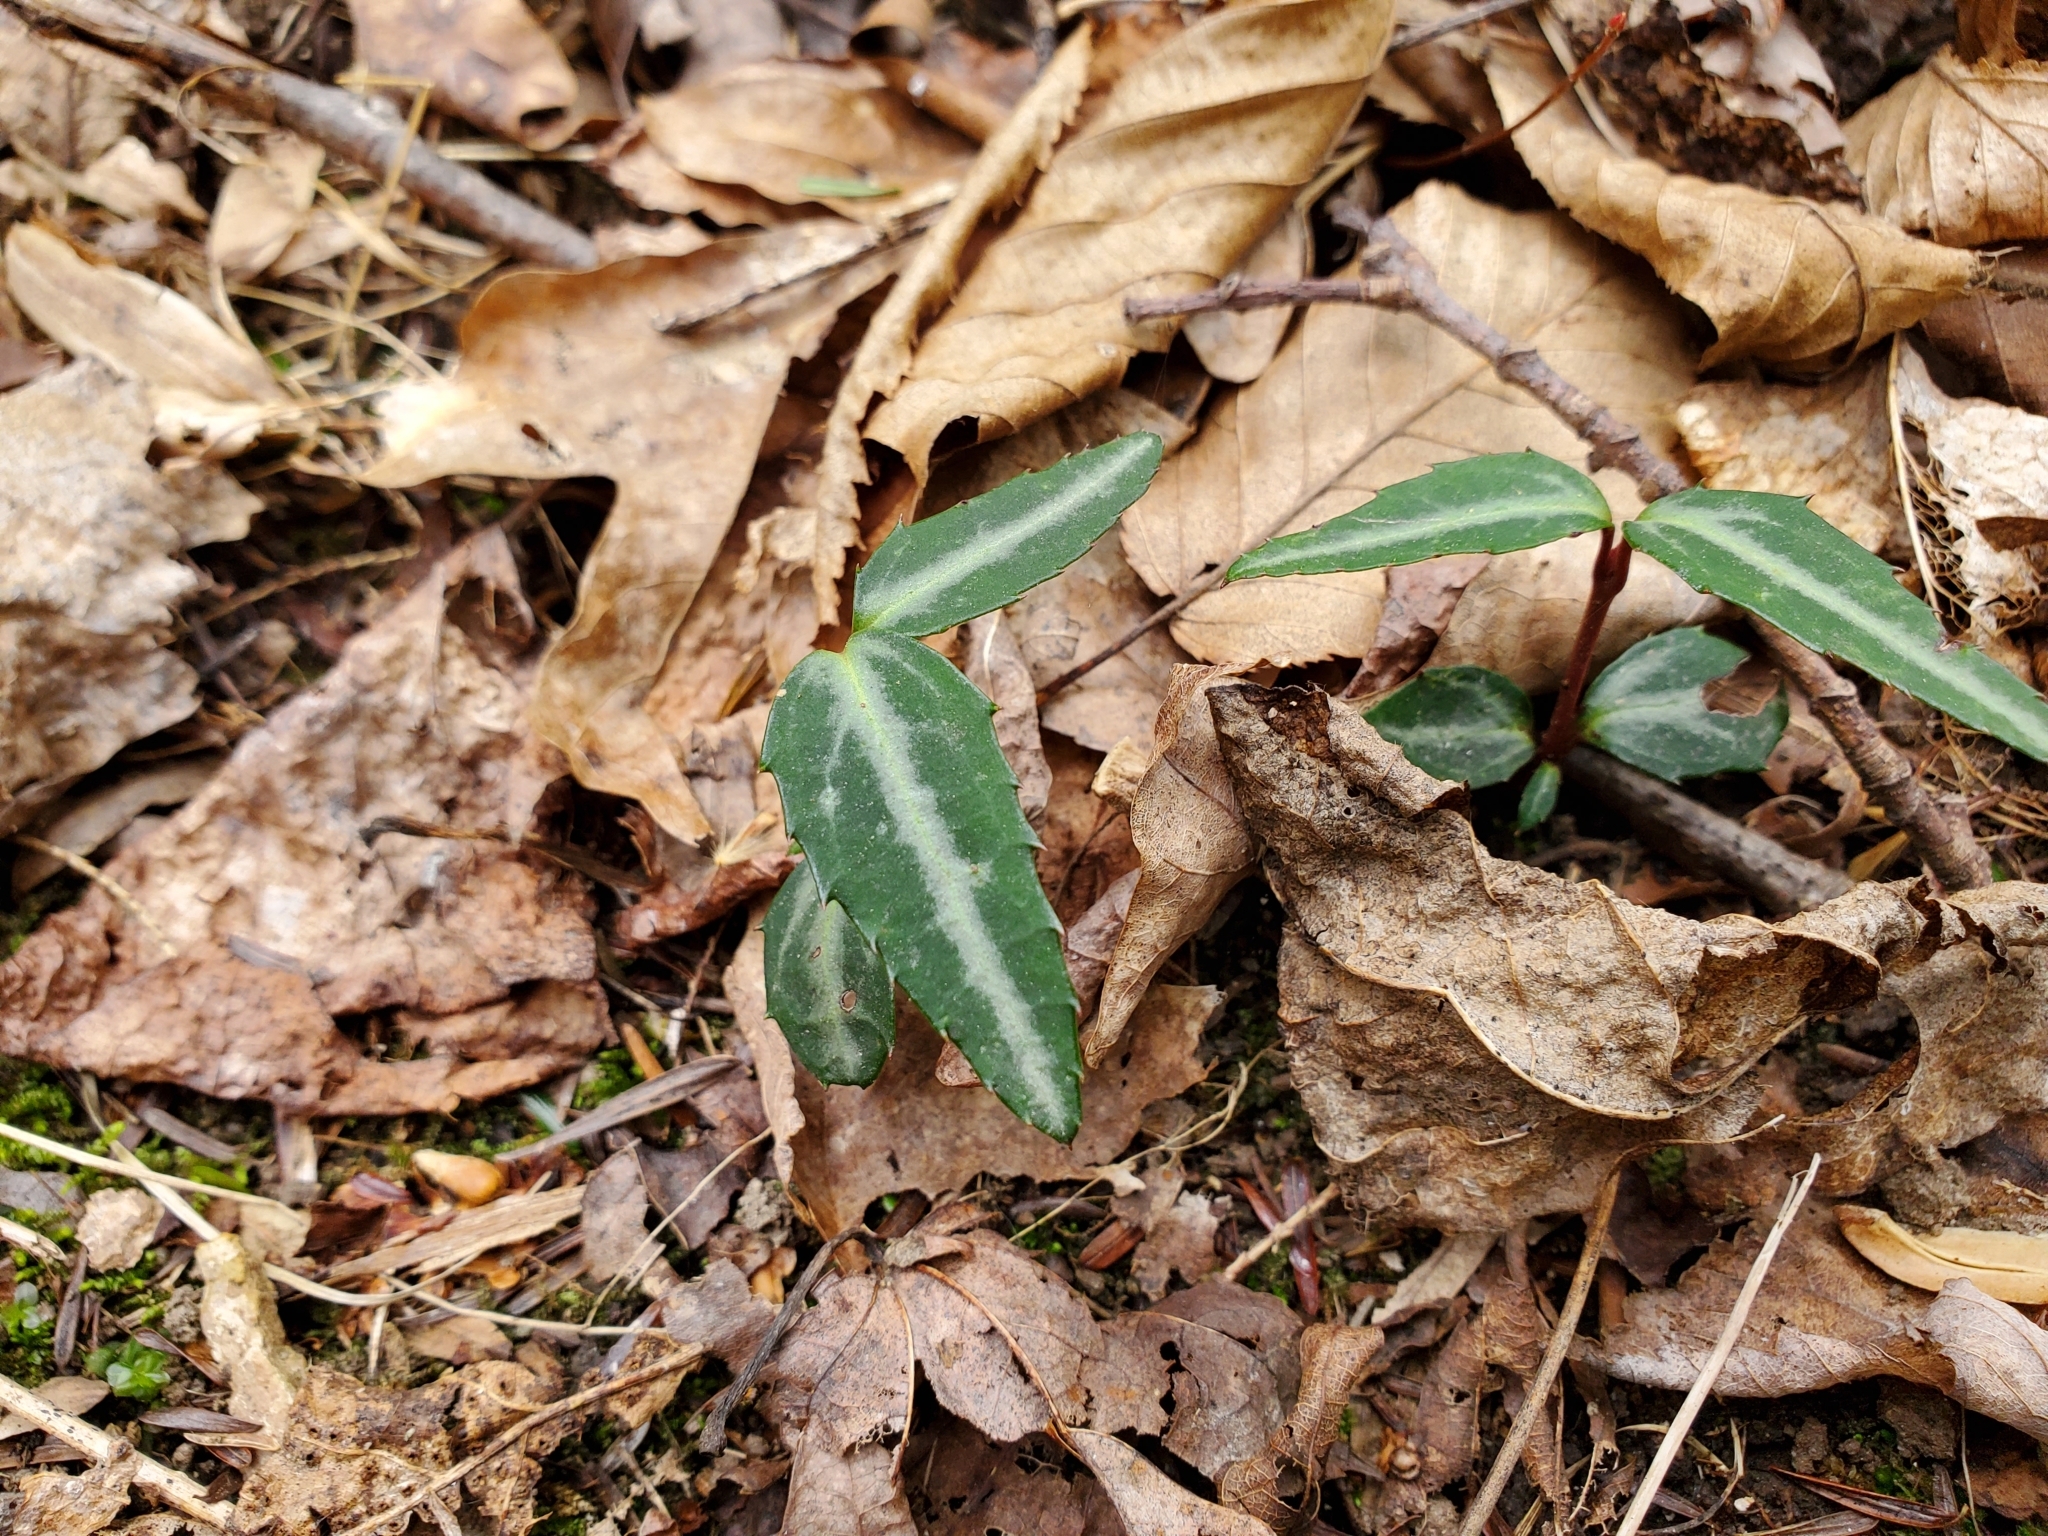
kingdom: Plantae
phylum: Tracheophyta
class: Magnoliopsida
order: Ericales
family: Ericaceae
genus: Chimaphila
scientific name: Chimaphila maculata
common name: Spotted pipsissewa
